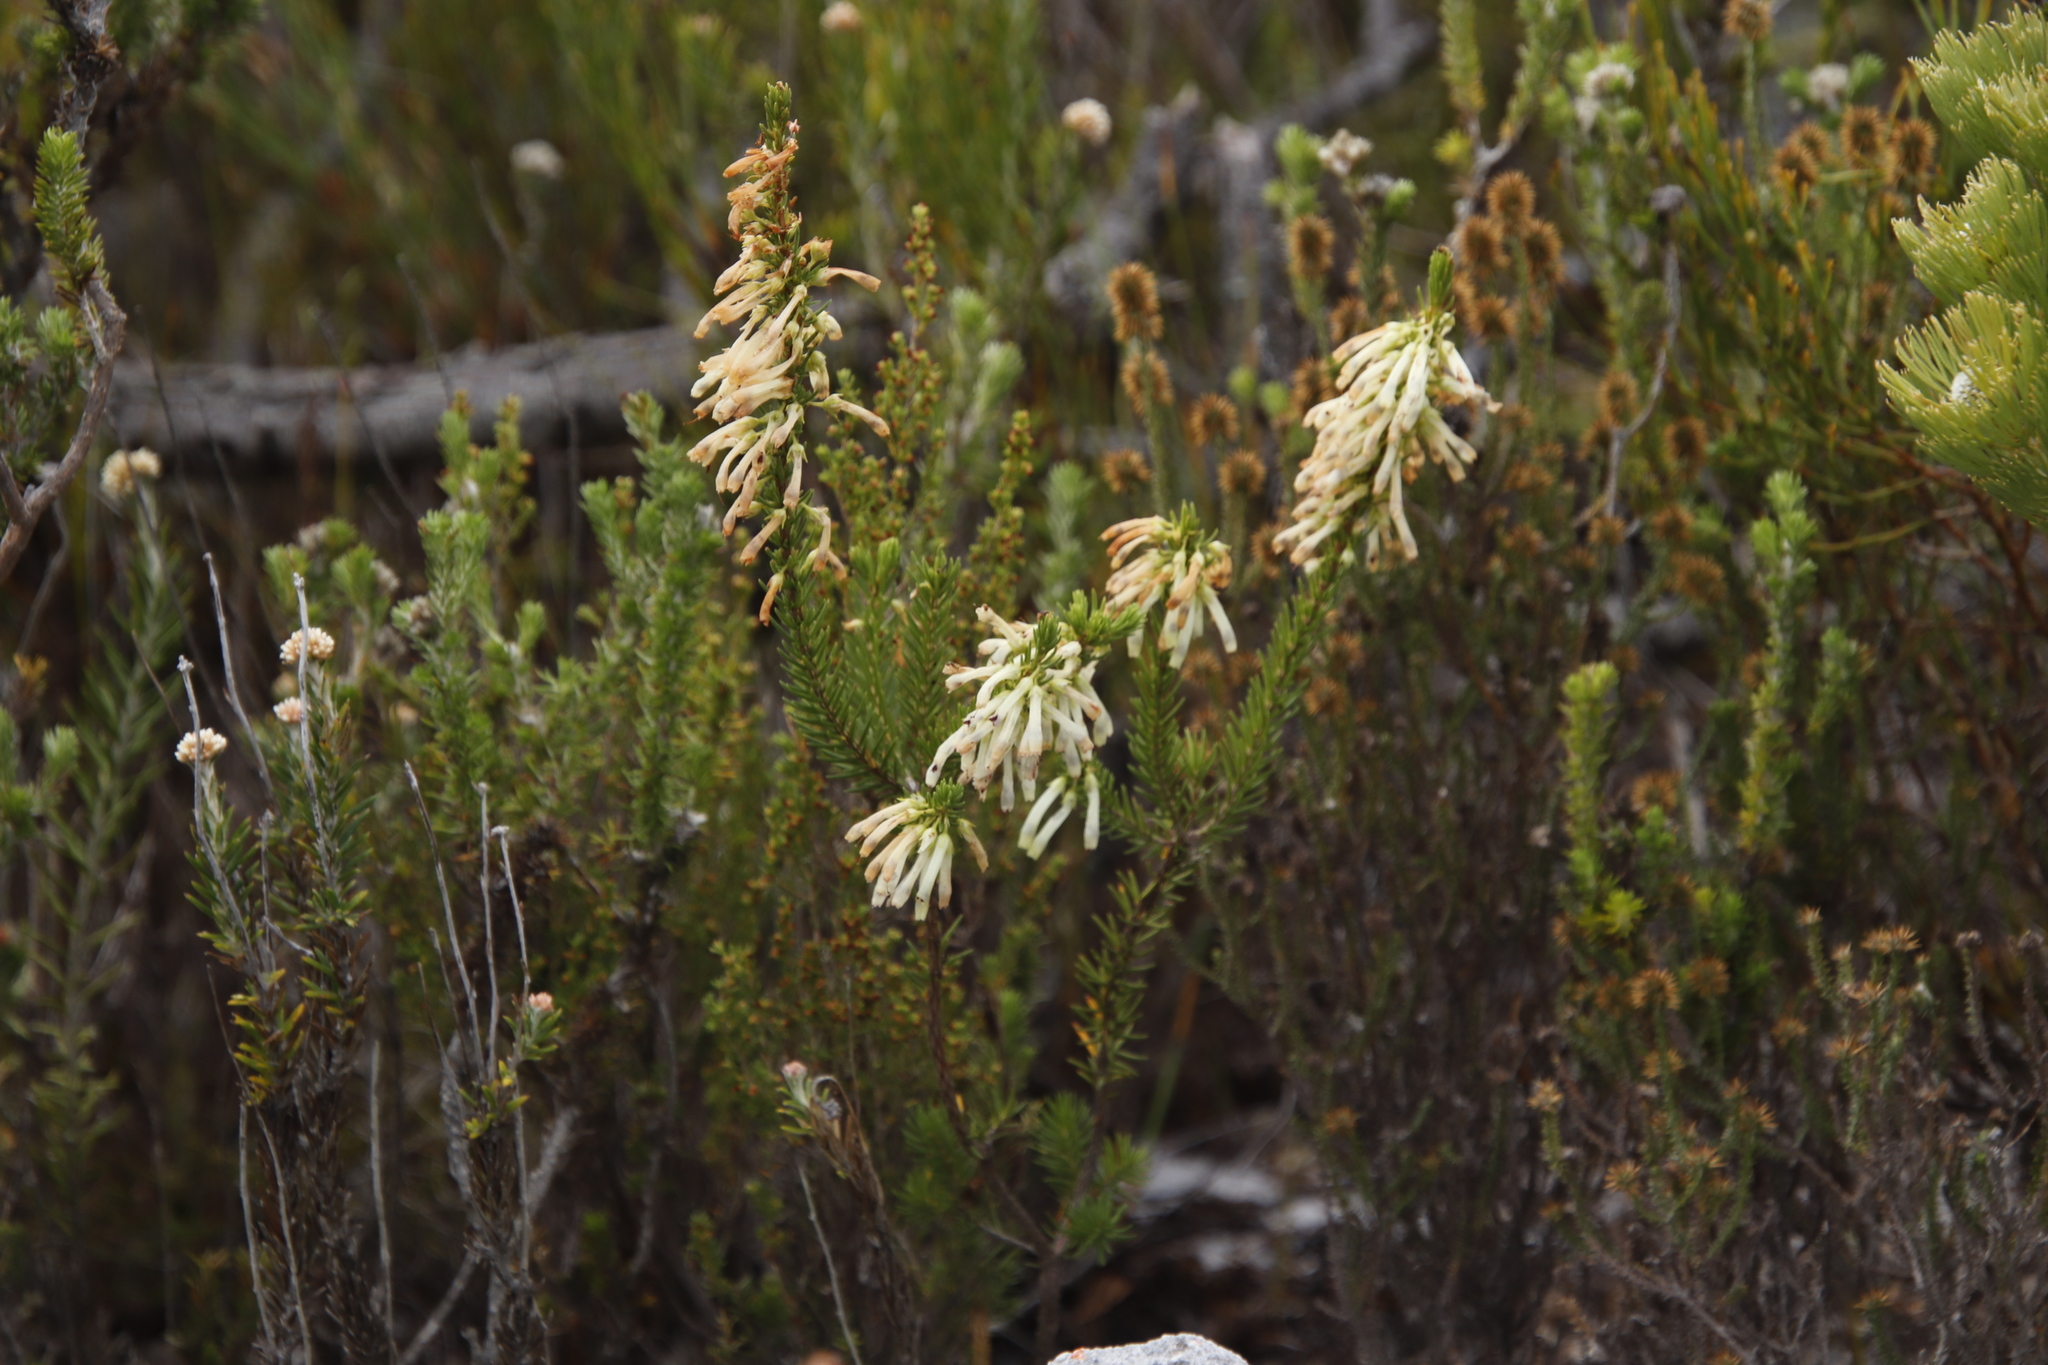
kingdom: Plantae
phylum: Tracheophyta
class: Magnoliopsida
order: Ericales
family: Ericaceae
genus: Erica
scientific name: Erica mammosa
